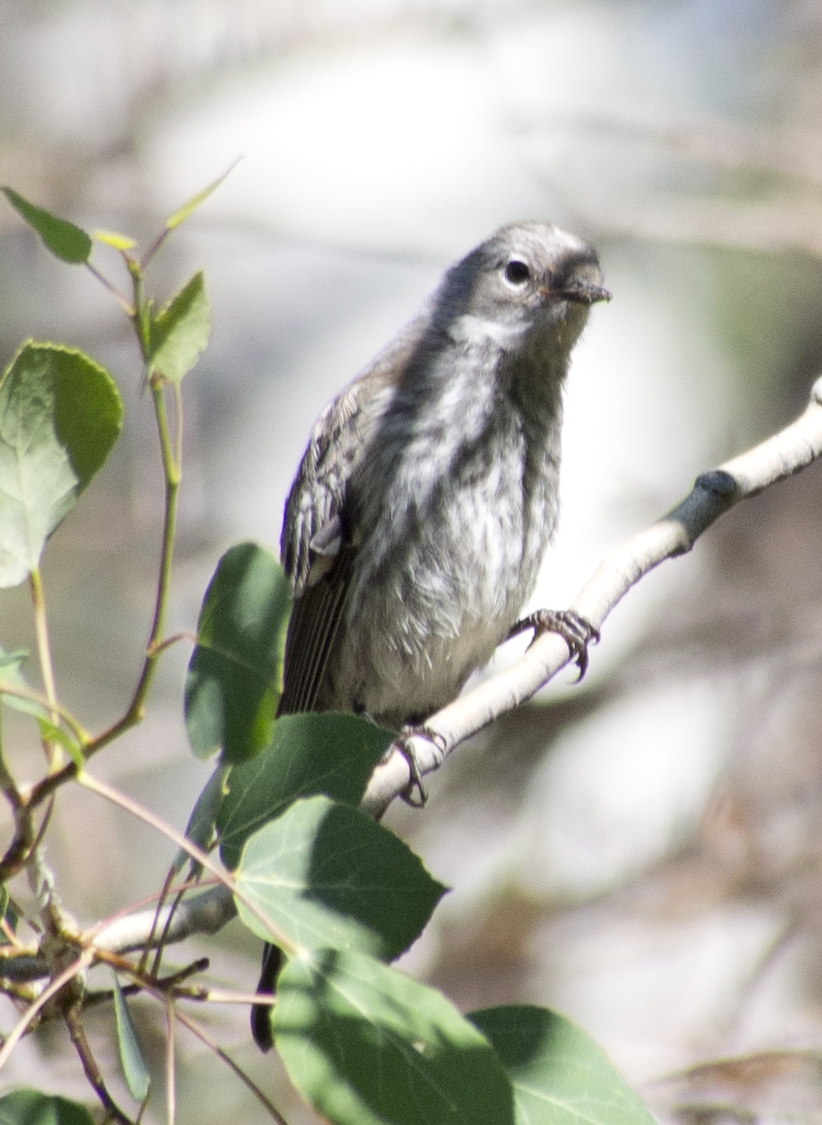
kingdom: Animalia
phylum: Chordata
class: Aves
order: Passeriformes
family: Parulidae
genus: Setophaga
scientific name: Setophaga coronata
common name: Myrtle warbler
